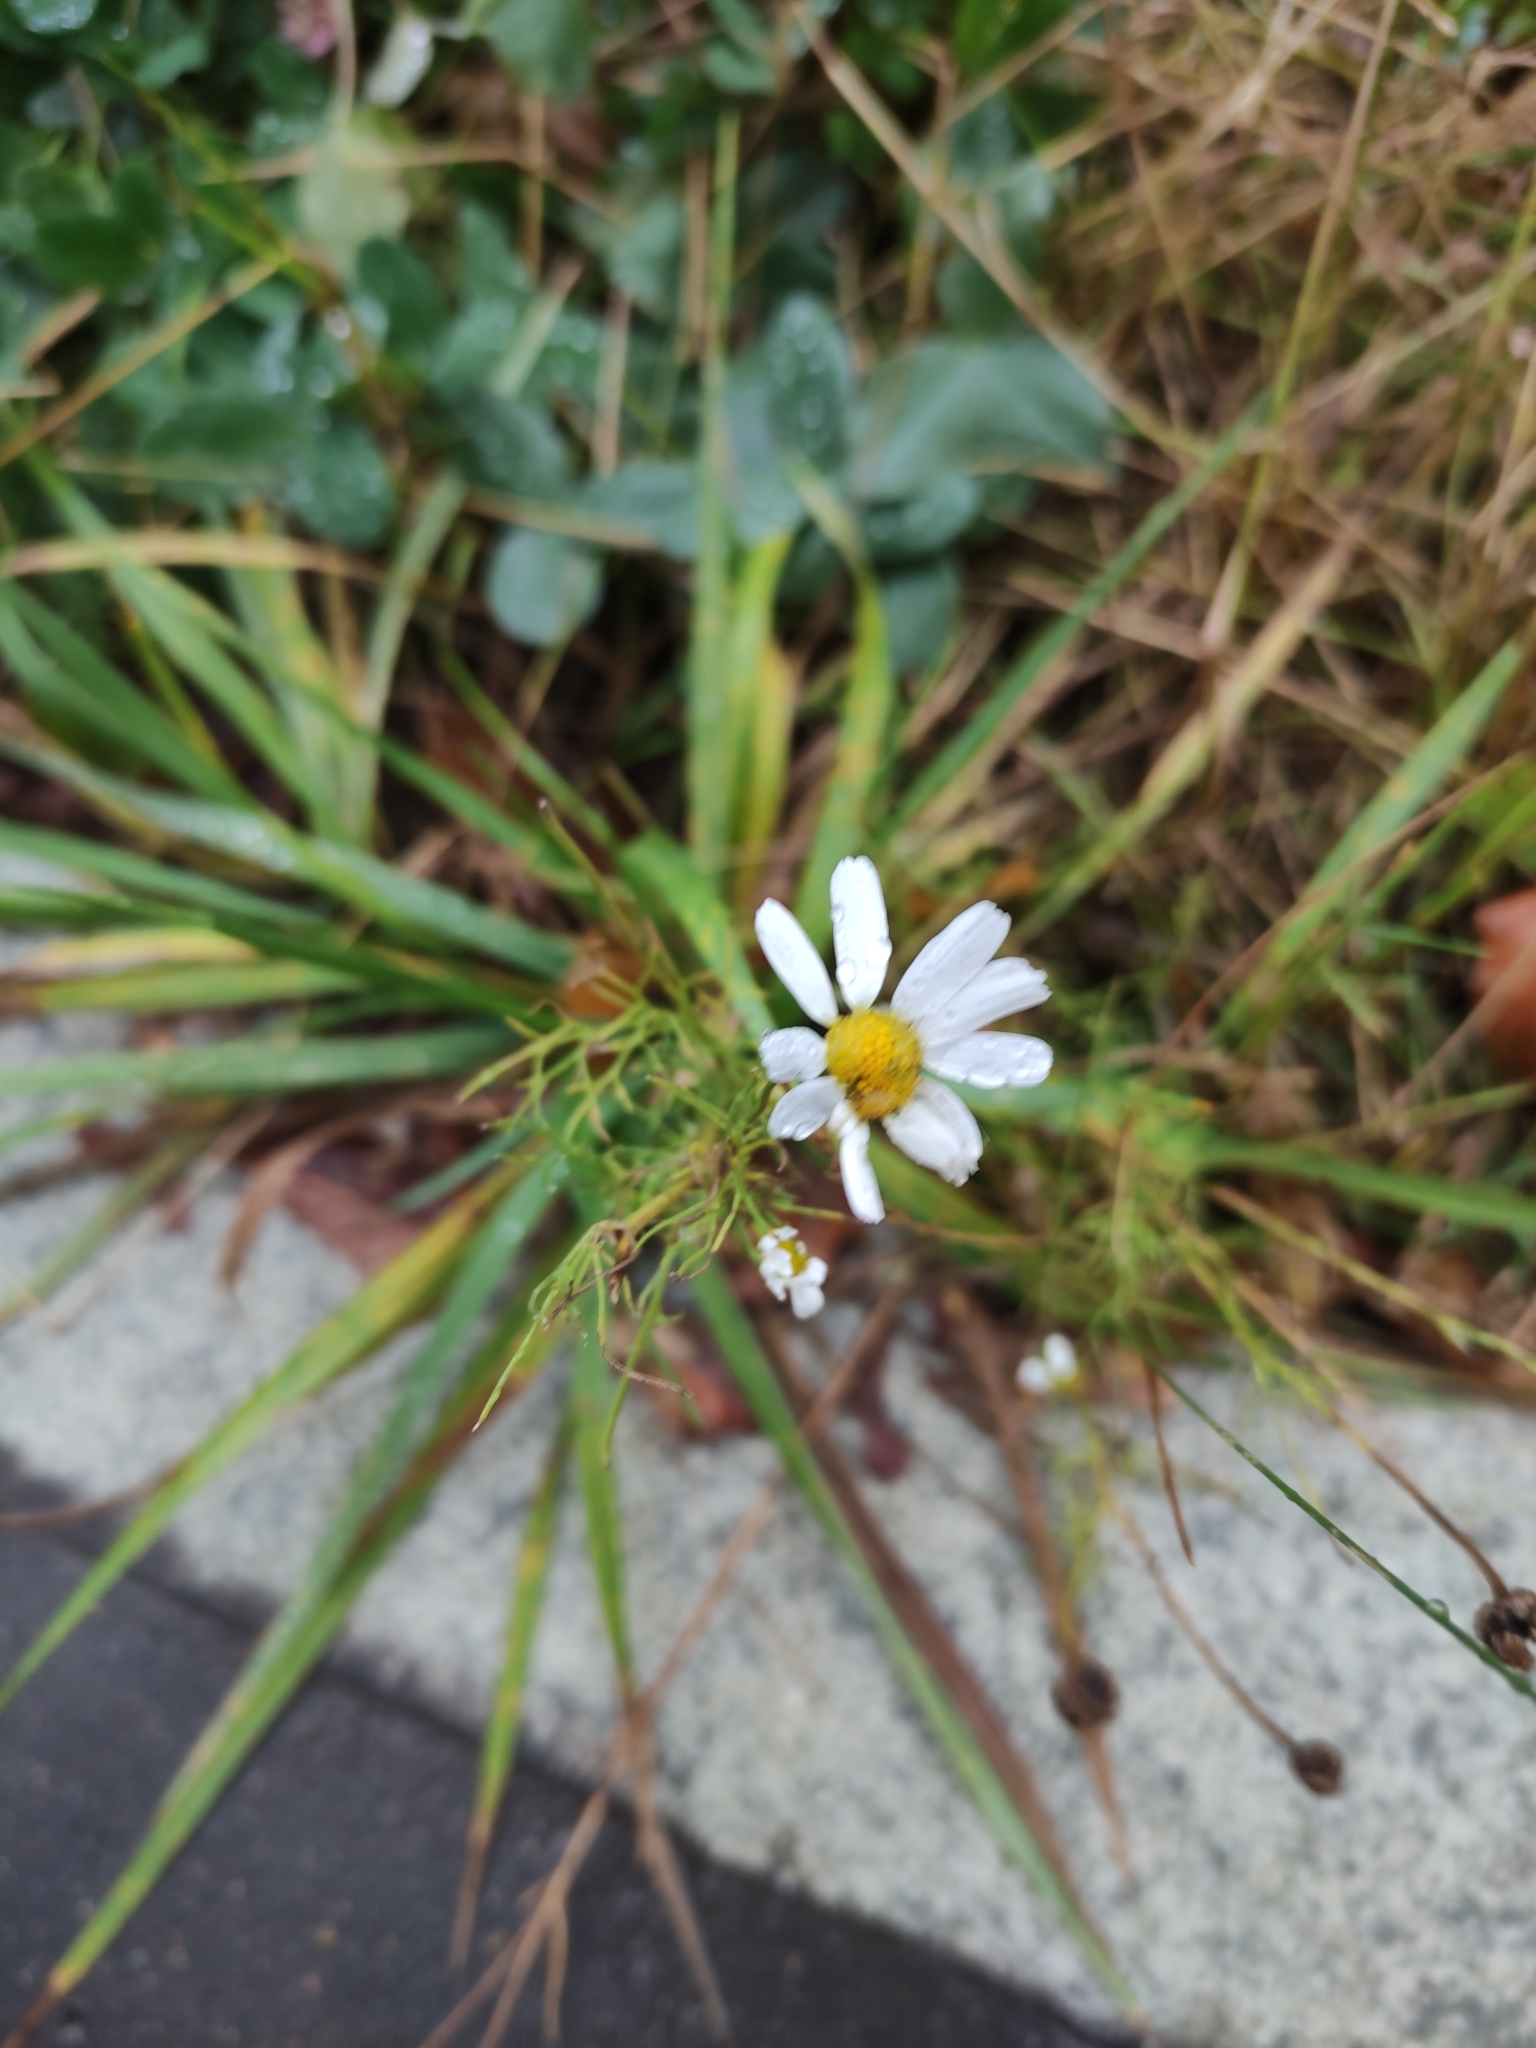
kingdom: Plantae
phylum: Tracheophyta
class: Magnoliopsida
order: Asterales
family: Asteraceae
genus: Tripleurospermum
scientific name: Tripleurospermum inodorum
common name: Scentless mayweed
